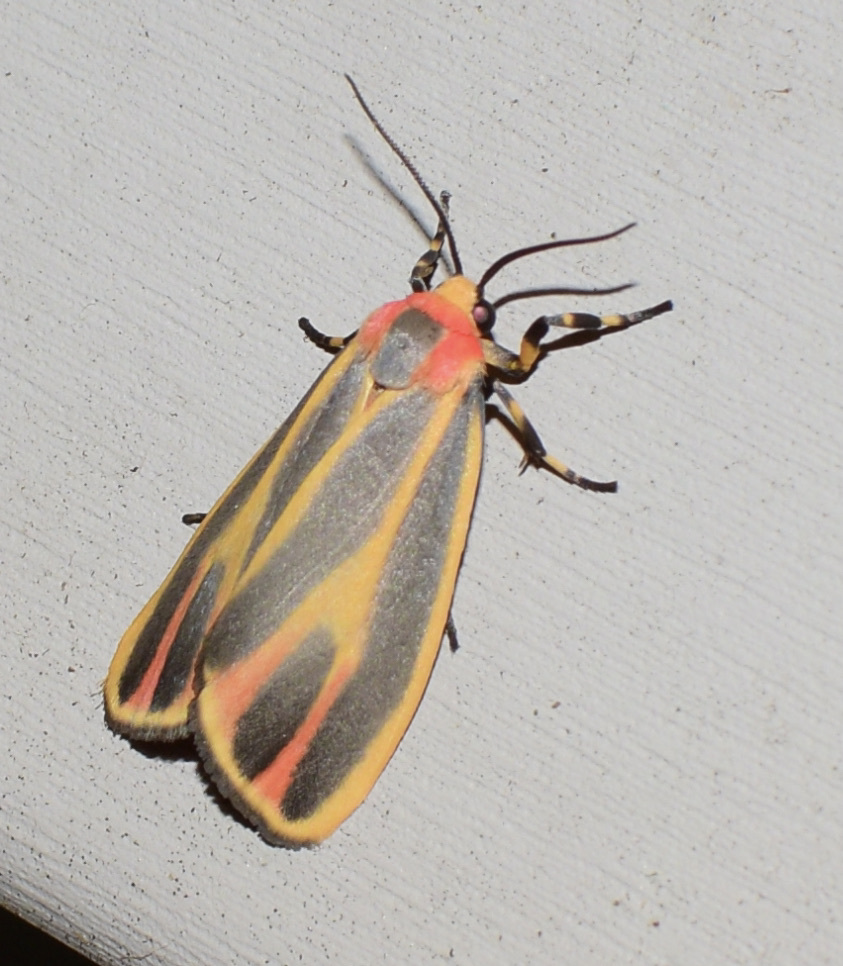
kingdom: Animalia
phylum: Arthropoda
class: Insecta
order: Lepidoptera
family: Erebidae
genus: Hypoprepia
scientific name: Hypoprepia fucosa
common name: Painted lichen moth
